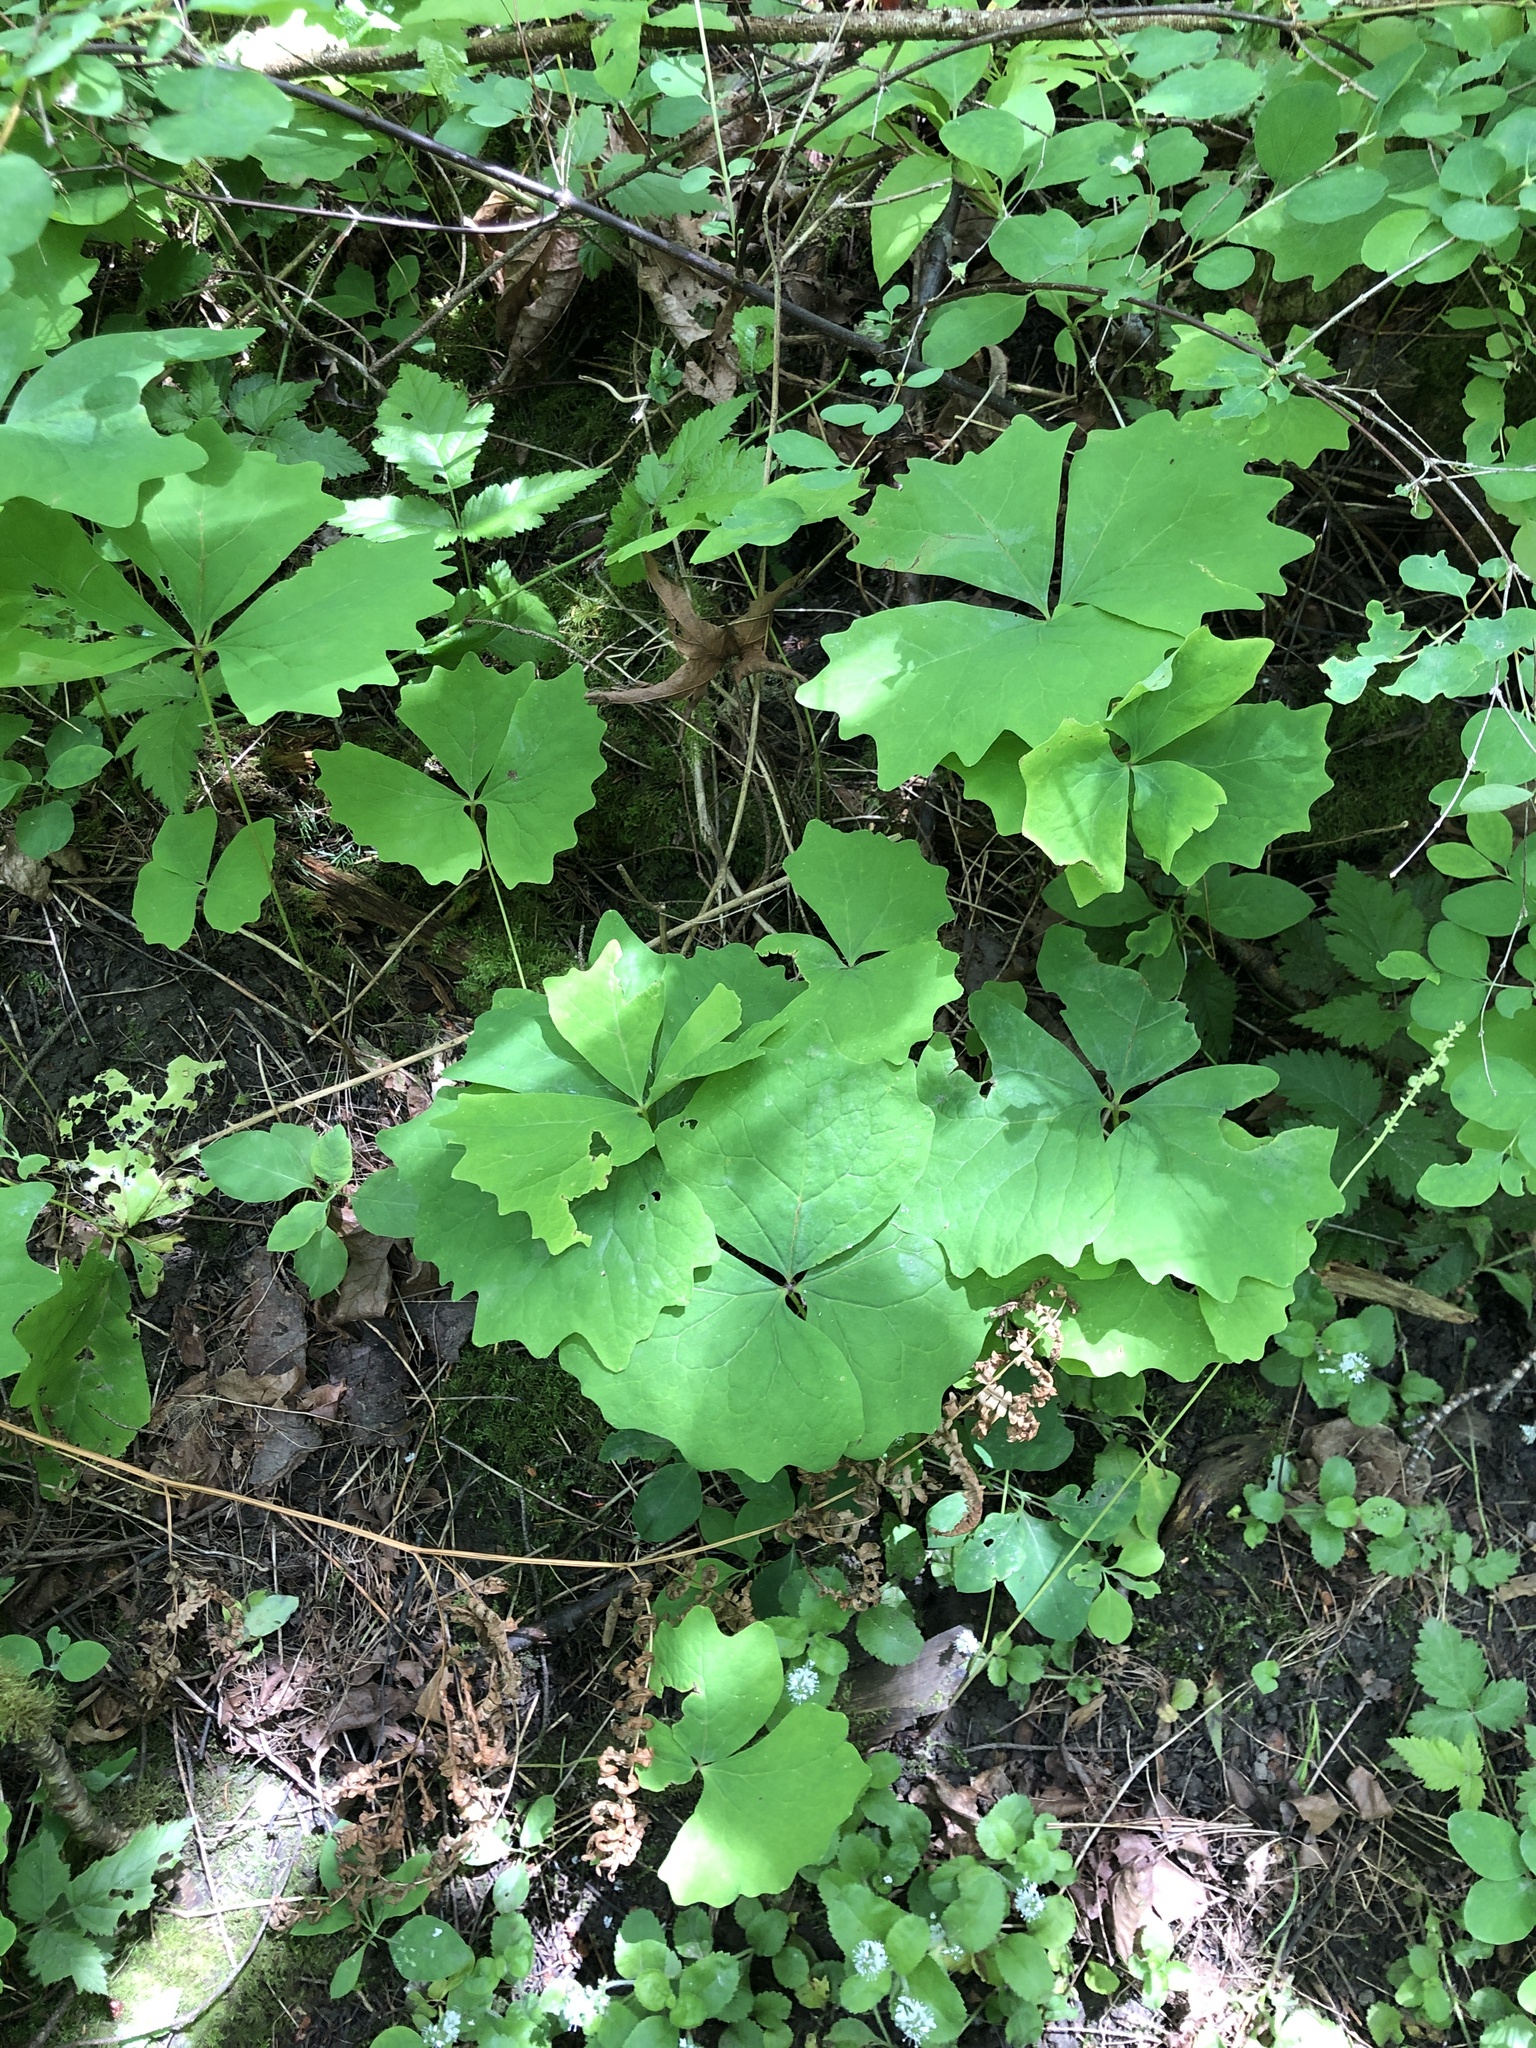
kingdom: Plantae
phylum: Tracheophyta
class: Magnoliopsida
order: Ranunculales
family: Berberidaceae
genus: Achlys
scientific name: Achlys triphylla
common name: Vanilla-leaf
